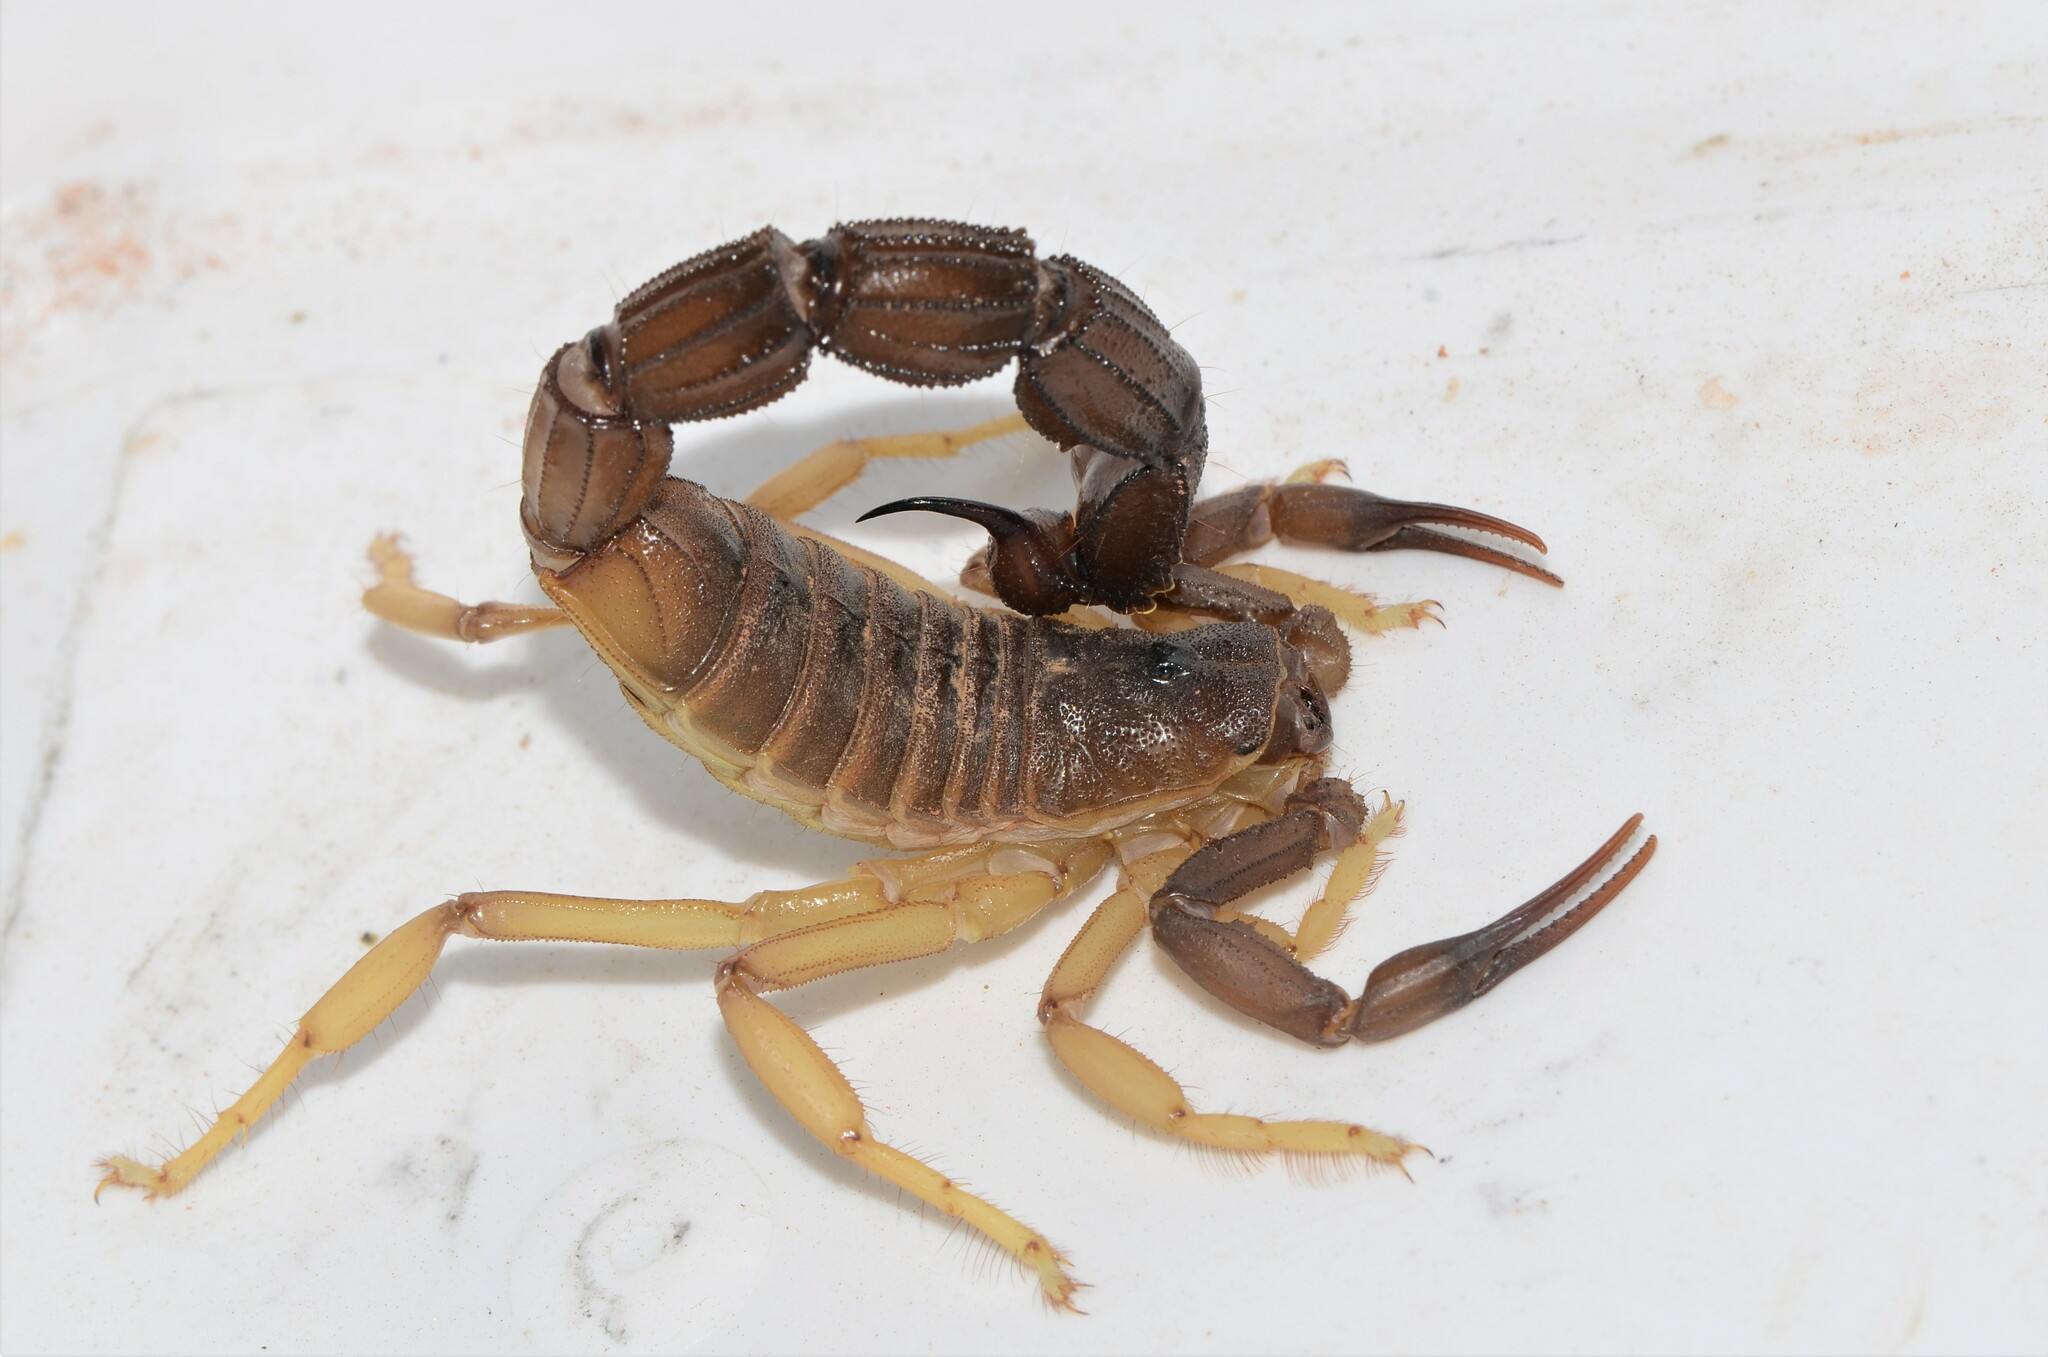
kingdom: Animalia
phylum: Arthropoda
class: Arachnida
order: Scorpiones
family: Buthidae
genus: Parabuthus
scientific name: Parabuthus granulatus
